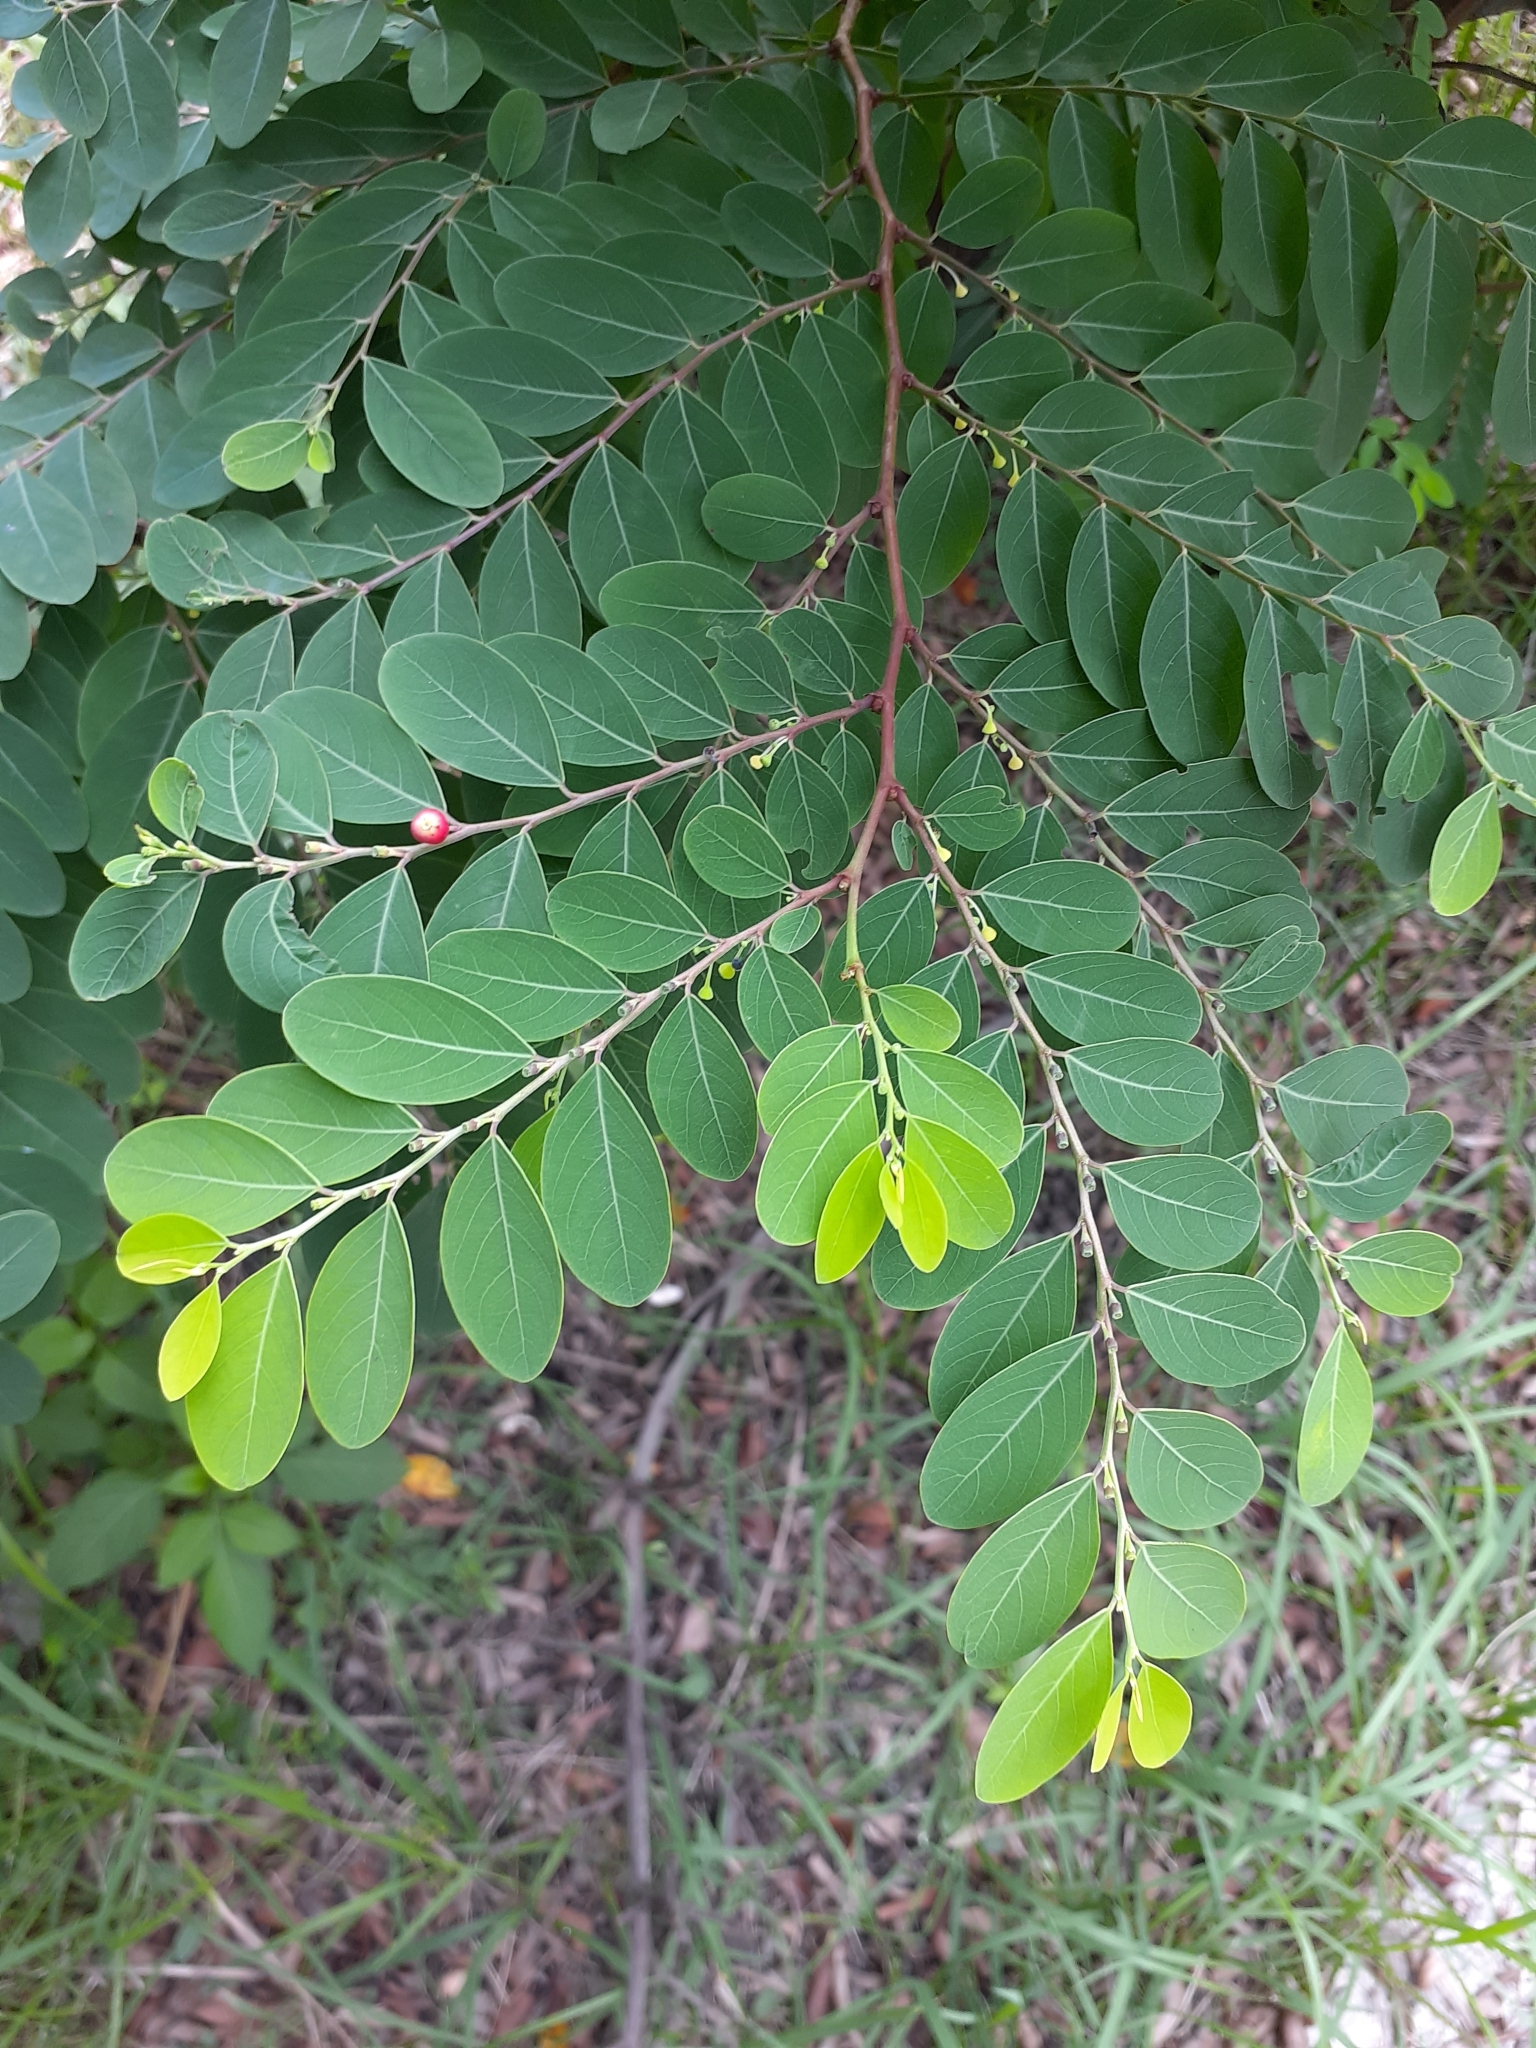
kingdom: Plantae
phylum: Tracheophyta
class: Magnoliopsida
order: Malpighiales
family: Phyllanthaceae
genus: Breynia
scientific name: Breynia vitis-idaea
